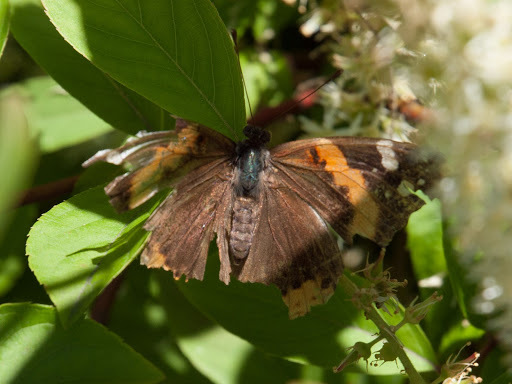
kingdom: Animalia
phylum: Arthropoda
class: Insecta
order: Lepidoptera
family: Nymphalidae
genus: Vanessa
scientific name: Vanessa atalanta
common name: Red admiral
